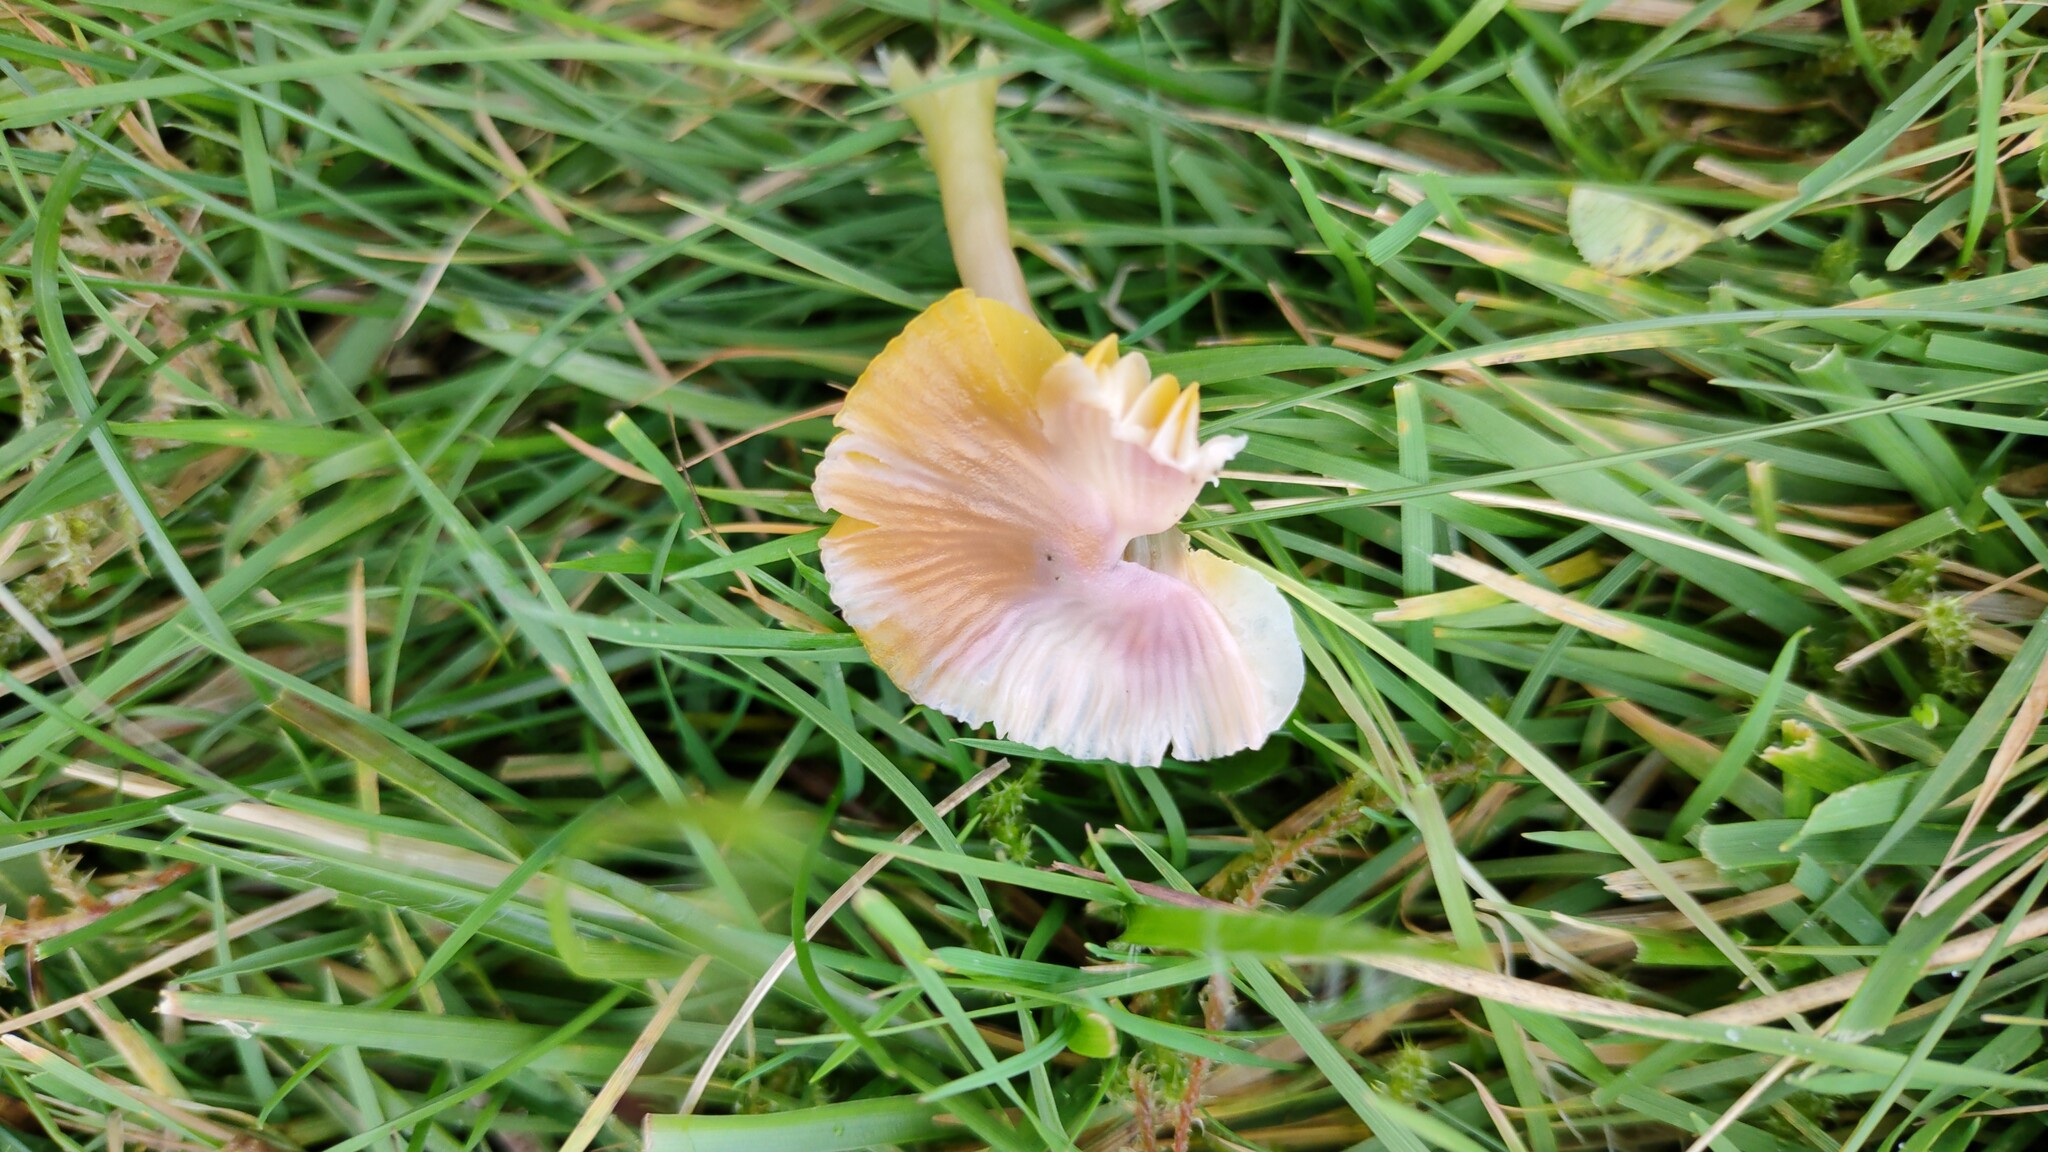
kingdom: Fungi
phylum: Basidiomycota
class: Agaricomycetes
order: Agaricales
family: Hygrophoraceae
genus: Gliophorus
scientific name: Gliophorus psittacinus
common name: Parrot wax-cap
